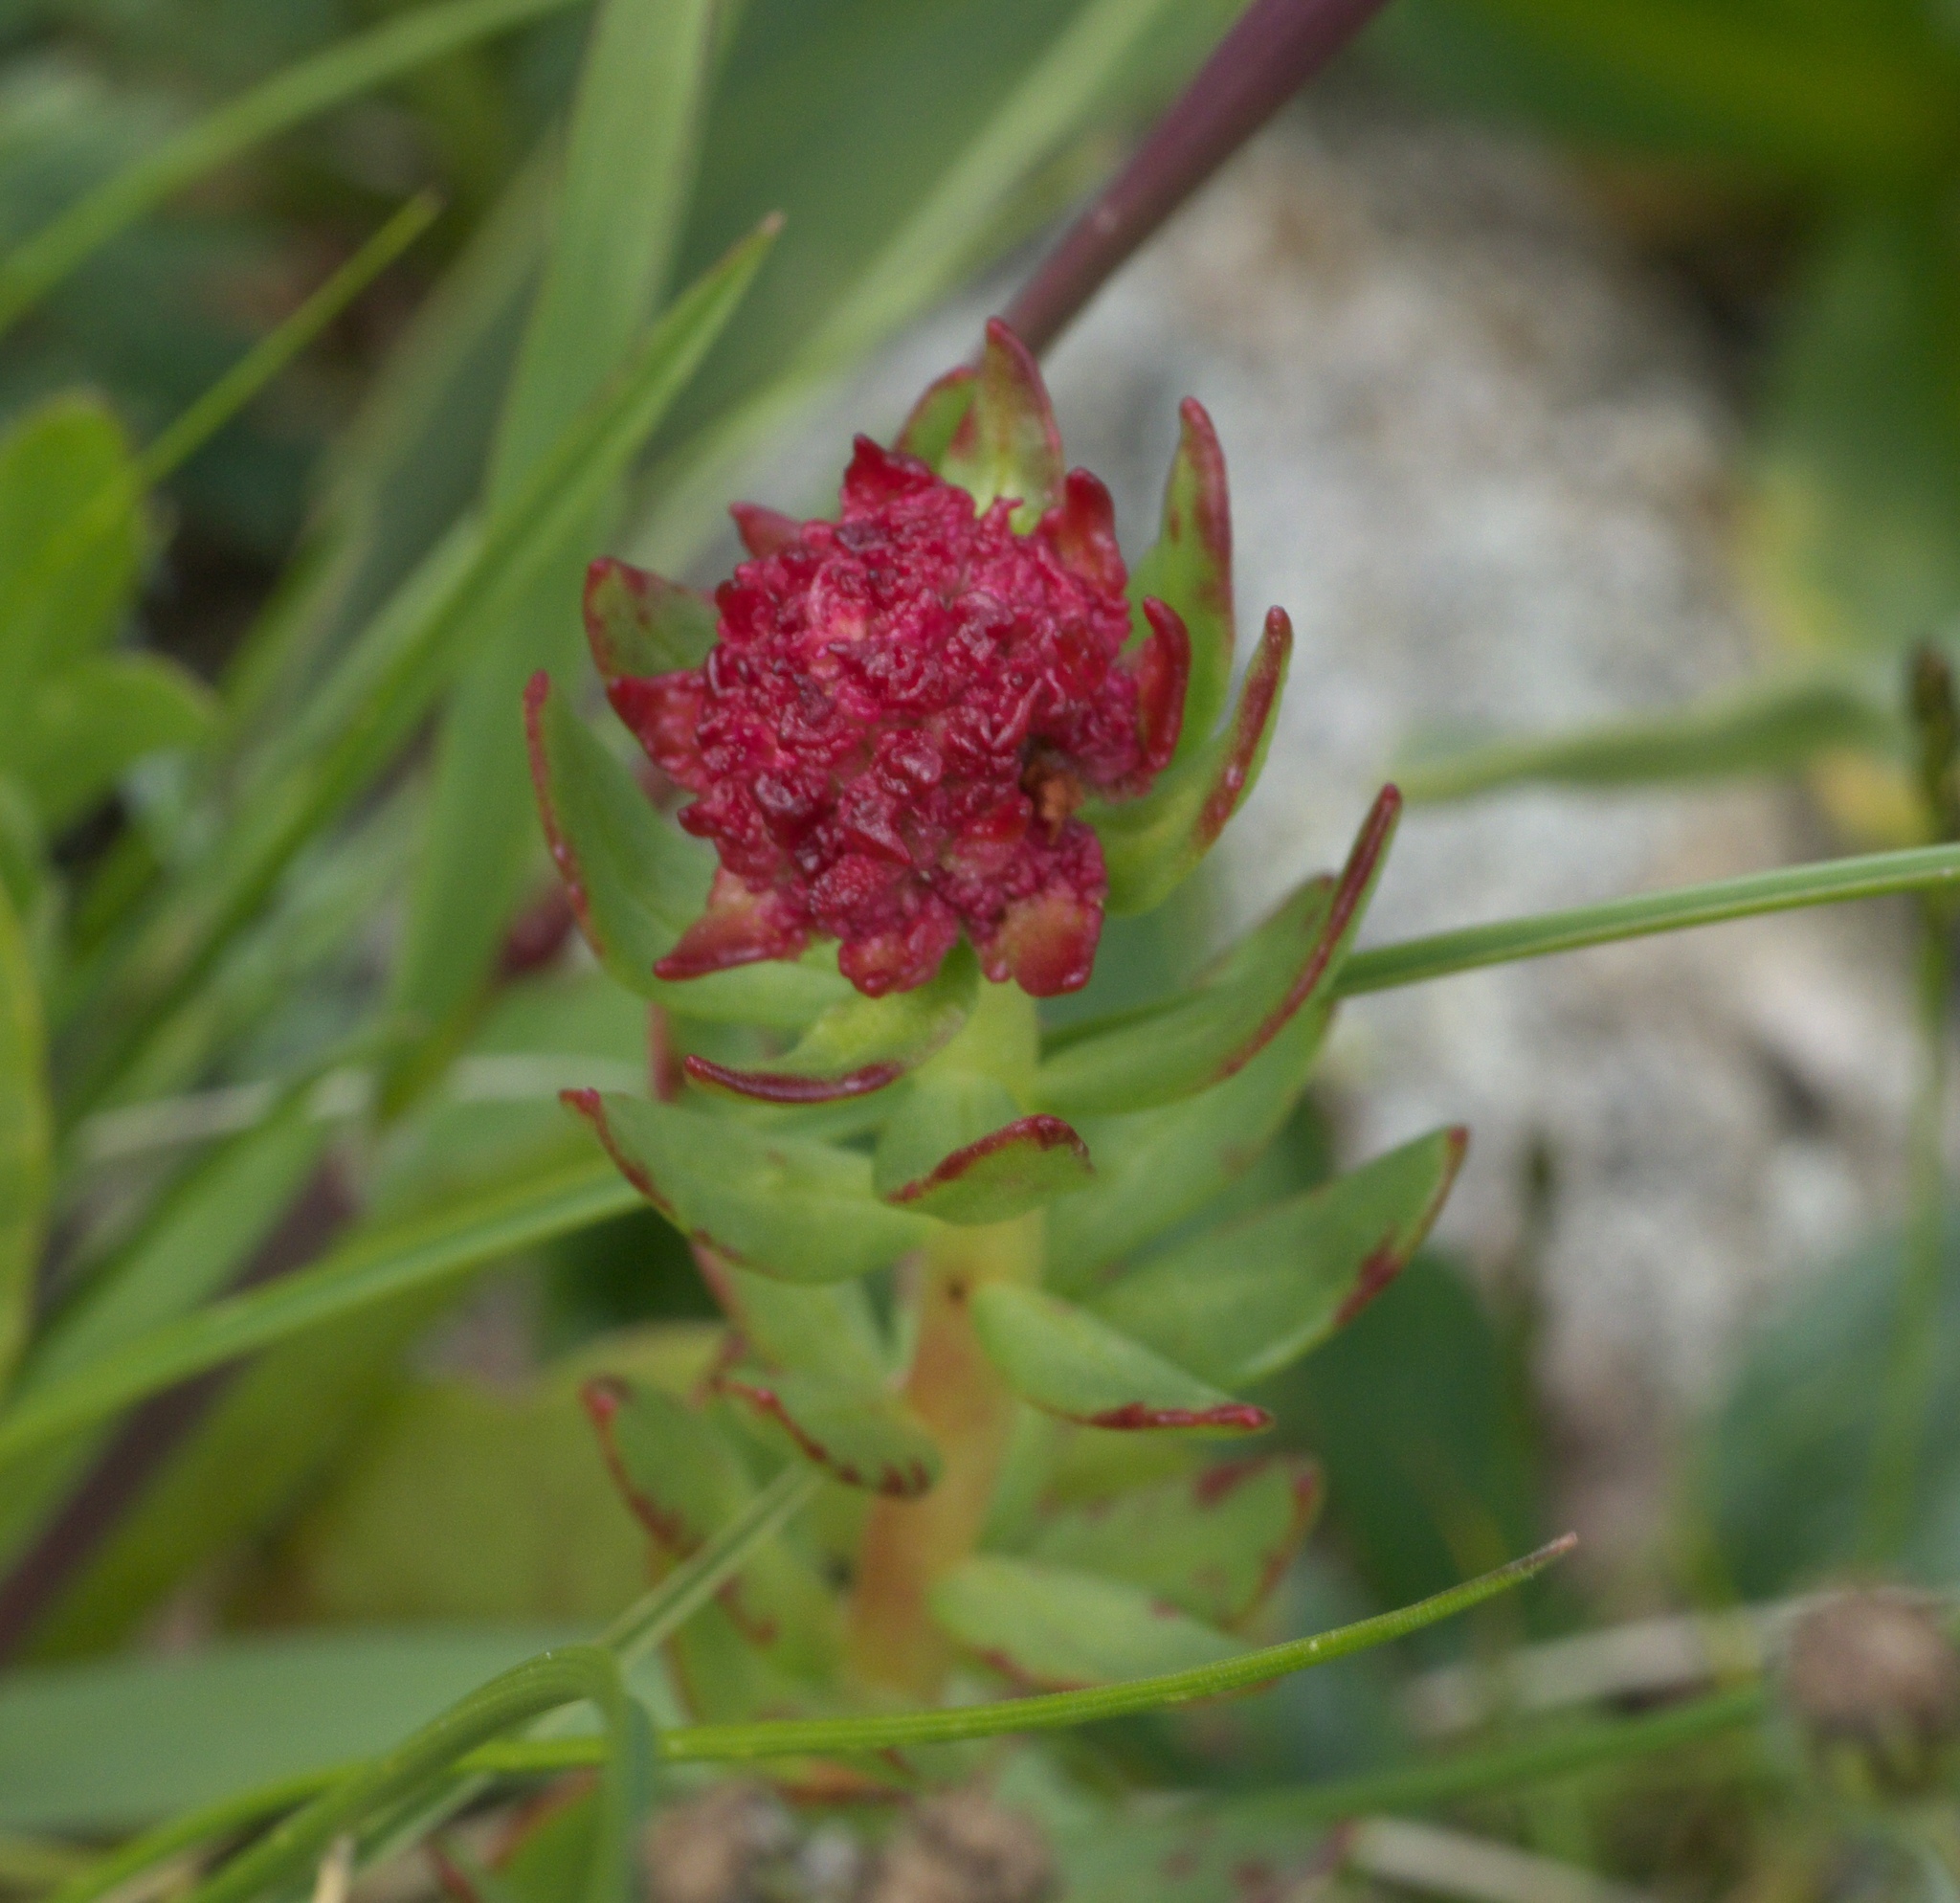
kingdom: Plantae
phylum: Tracheophyta
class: Magnoliopsida
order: Saxifragales
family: Crassulaceae
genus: Rhodiola
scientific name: Rhodiola integrifolia
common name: Western roseroot
